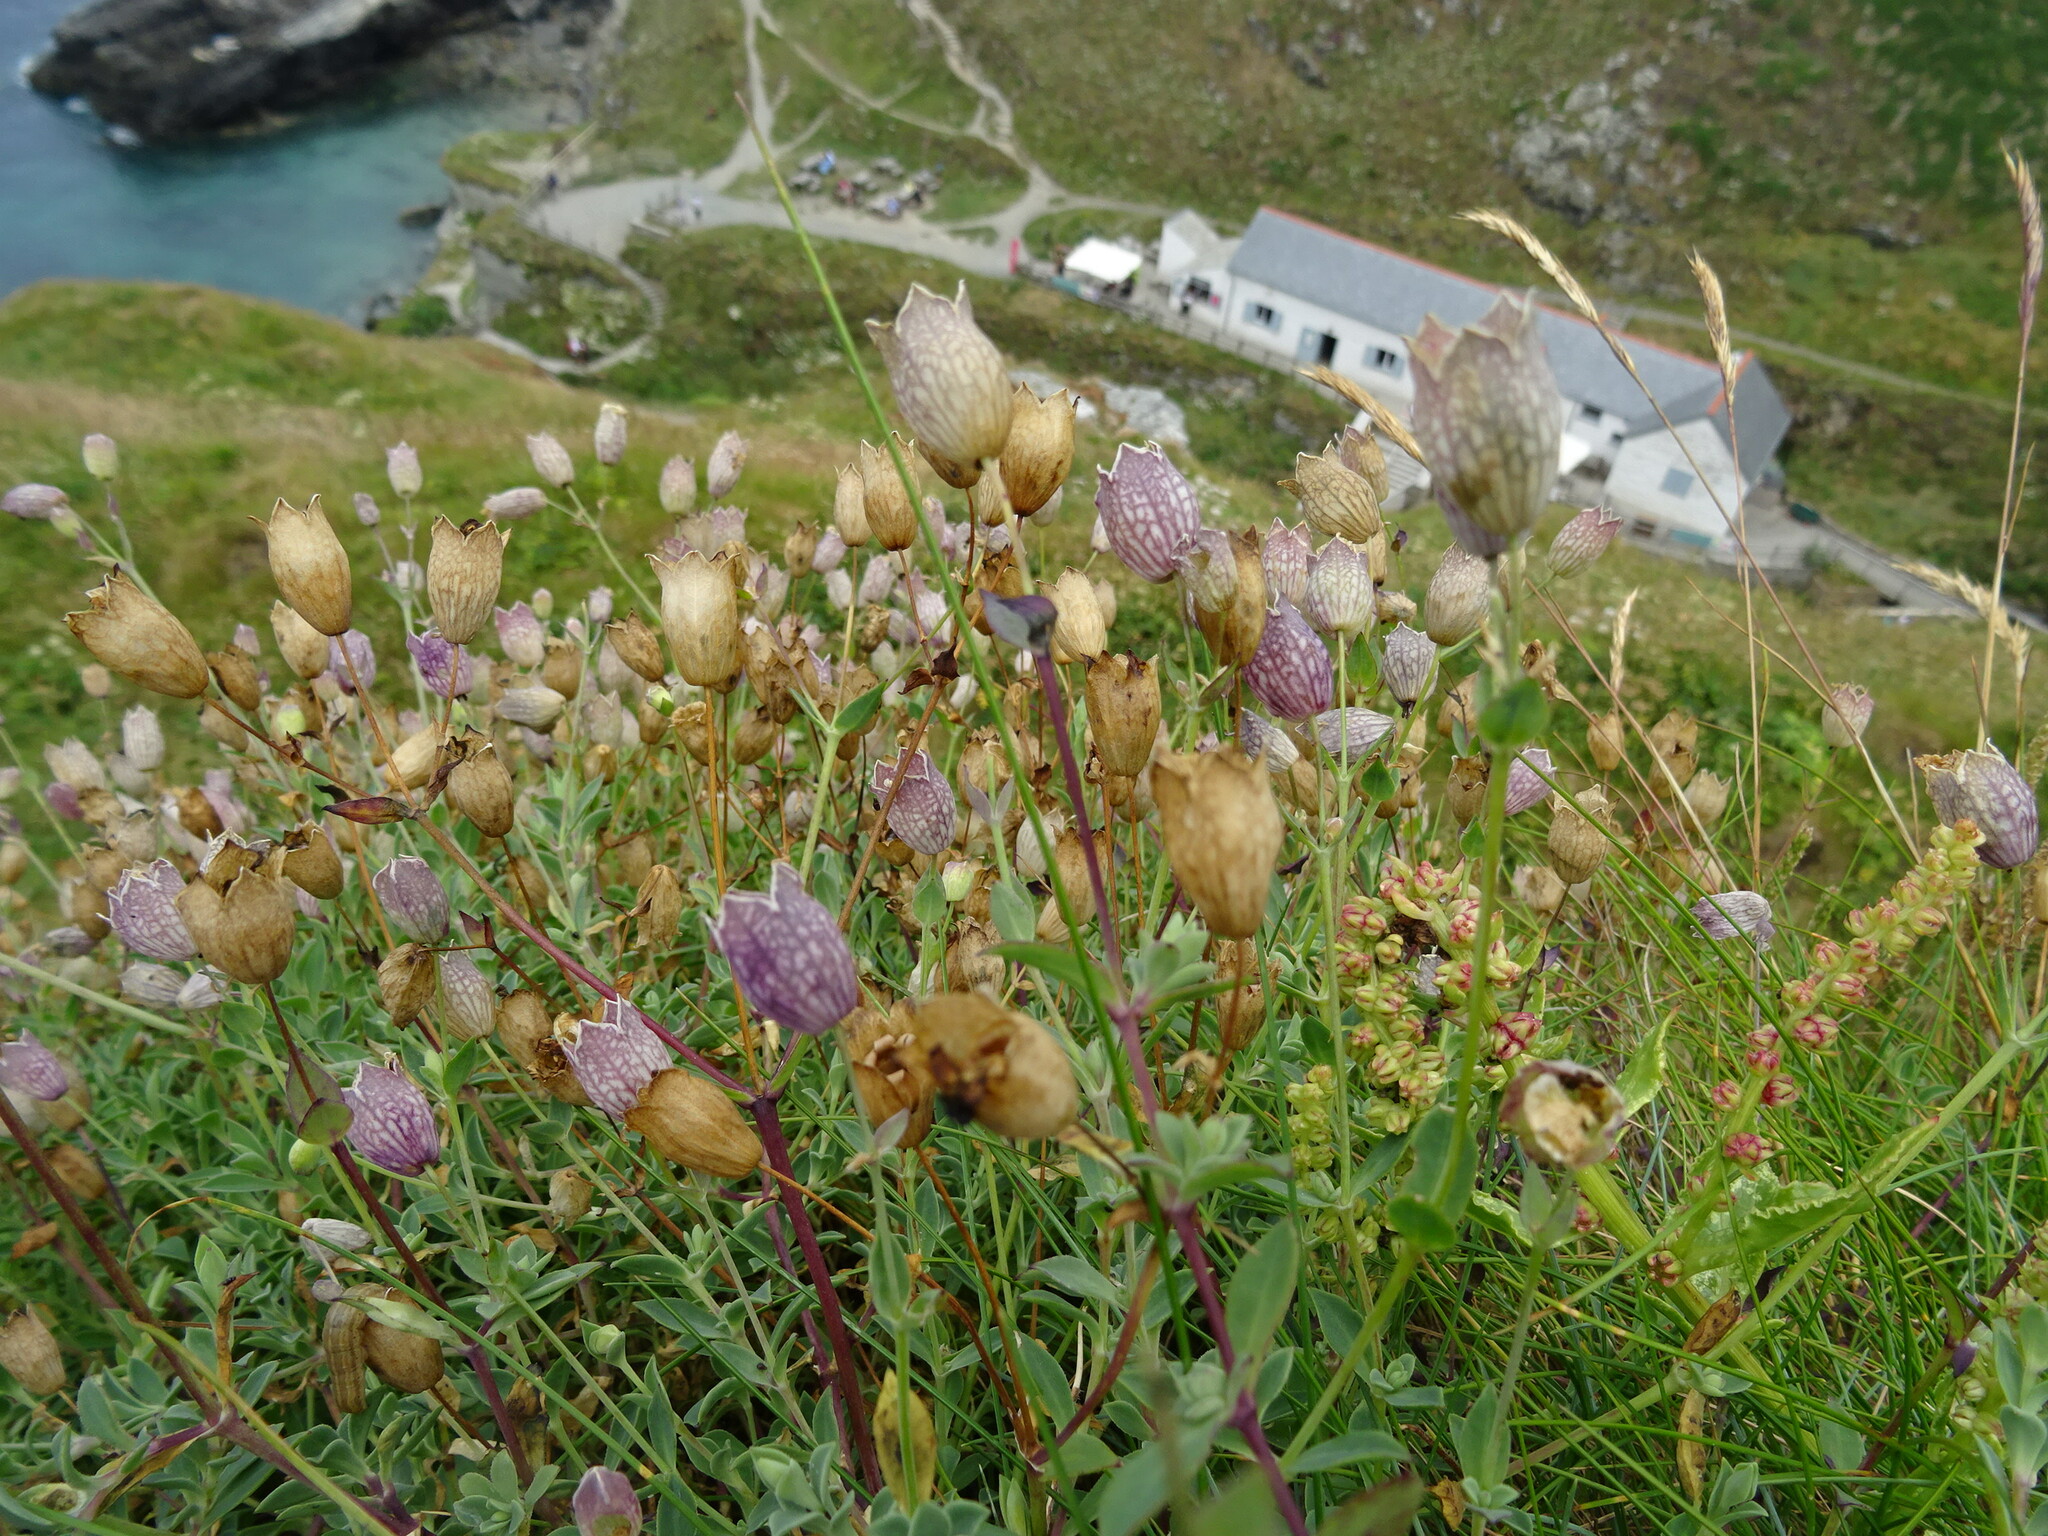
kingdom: Plantae
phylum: Tracheophyta
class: Magnoliopsida
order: Caryophyllales
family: Caryophyllaceae
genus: Silene
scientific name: Silene uniflora
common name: Sea campion
